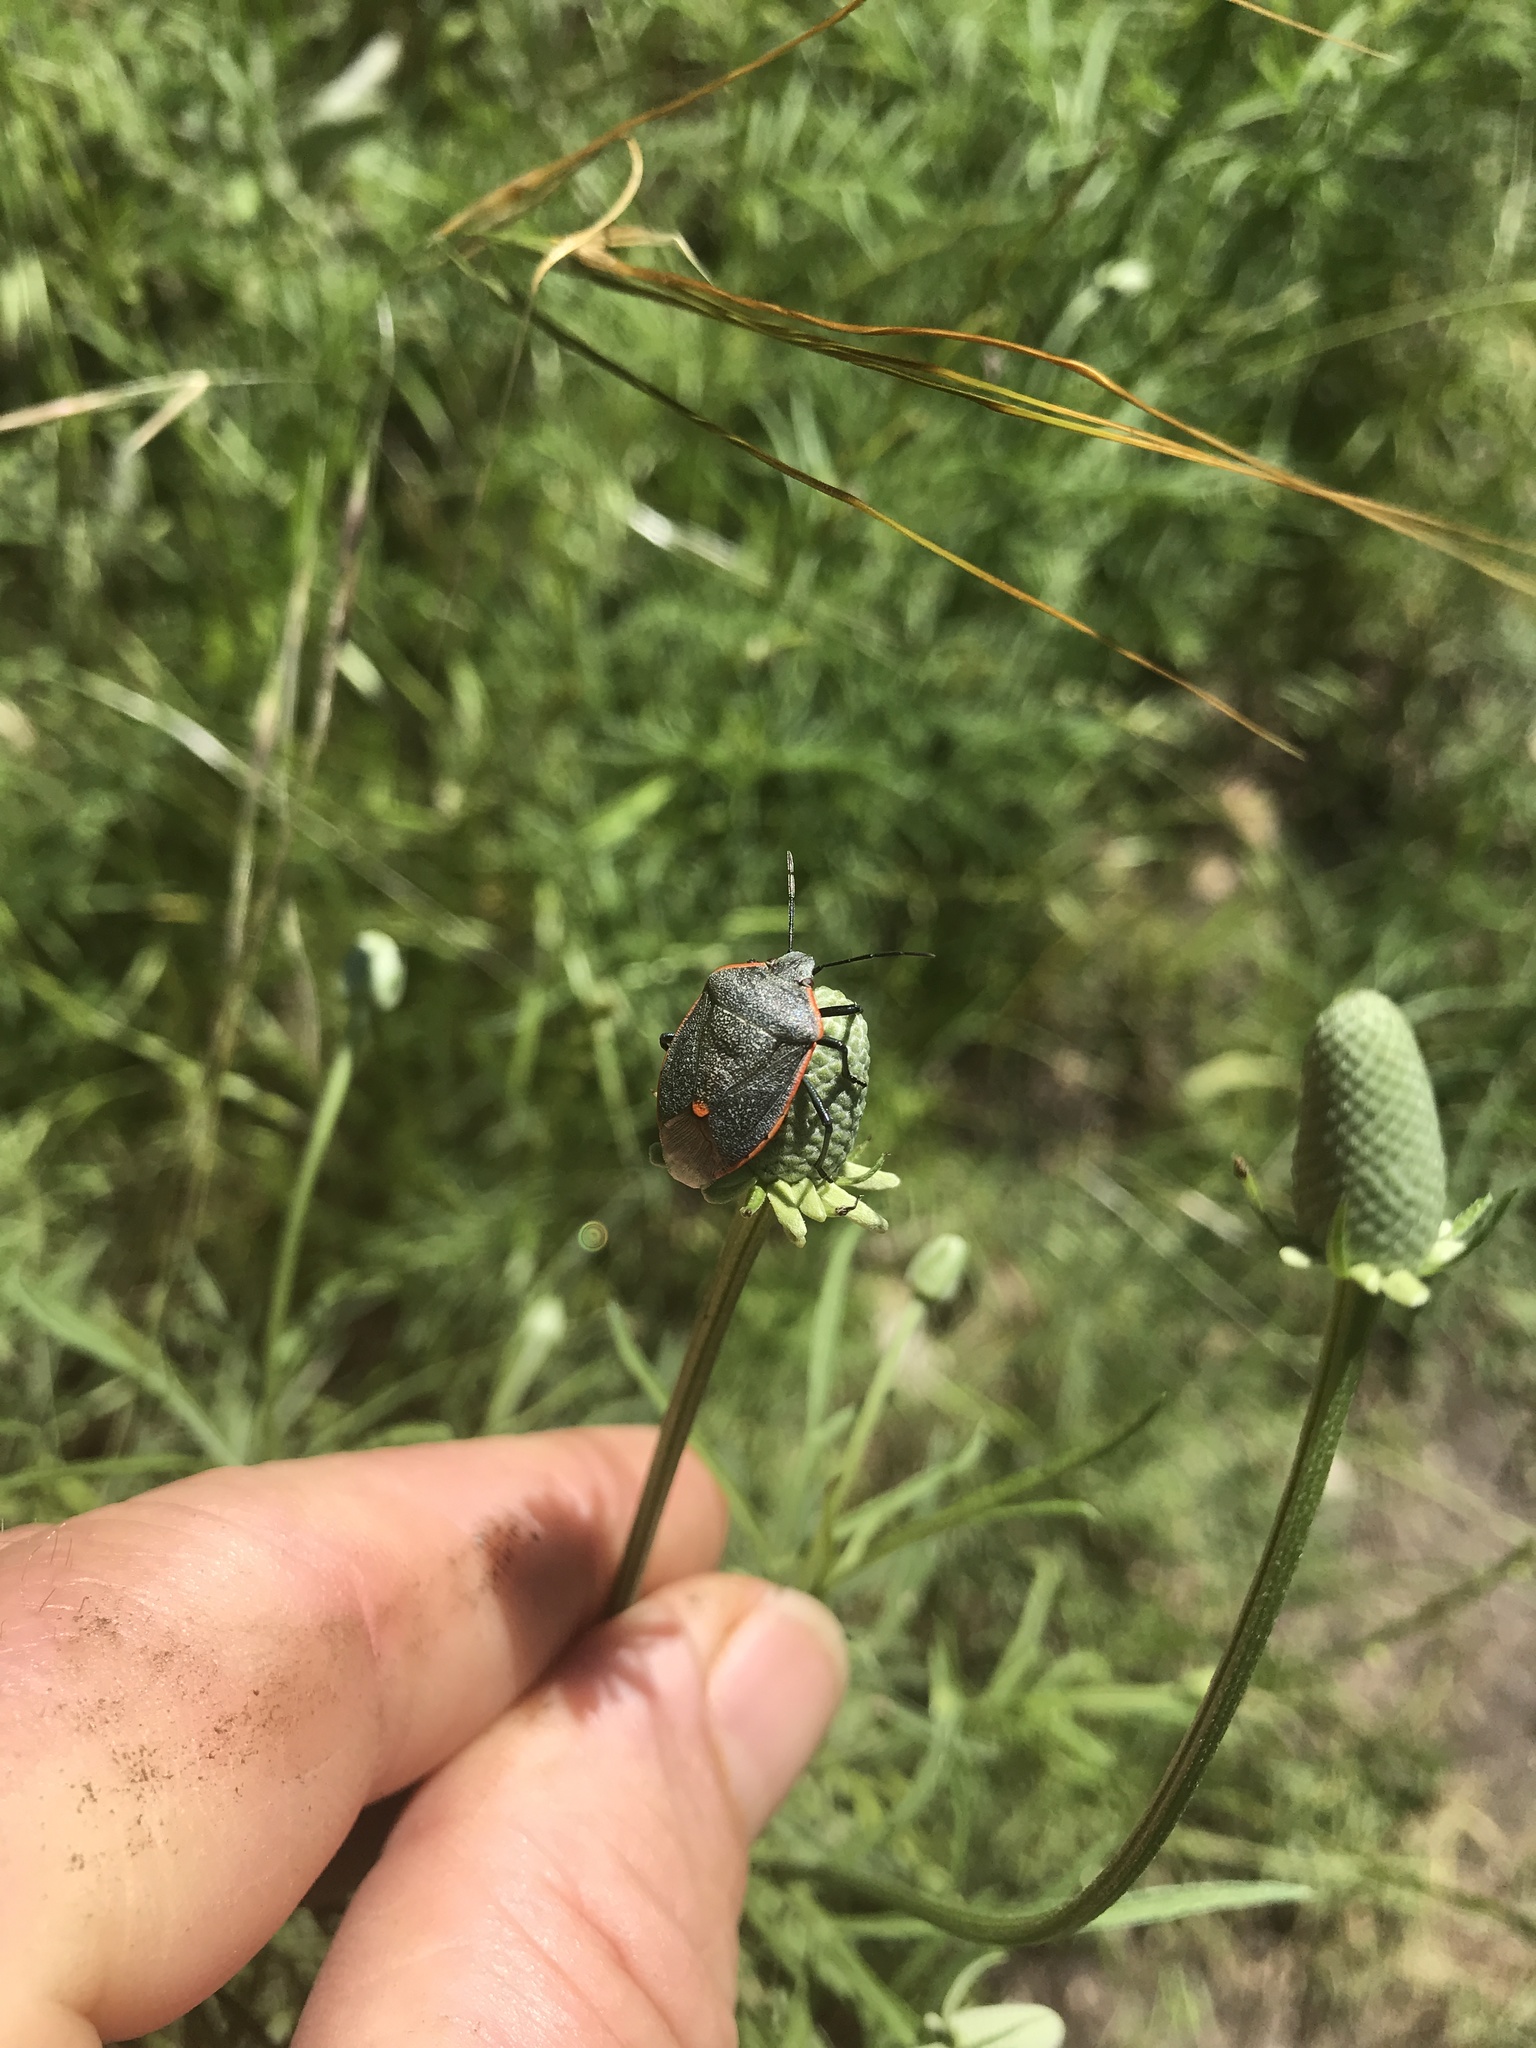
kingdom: Animalia
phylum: Arthropoda
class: Insecta
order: Hemiptera
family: Pentatomidae
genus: Chlorochroa
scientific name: Chlorochroa ligata
